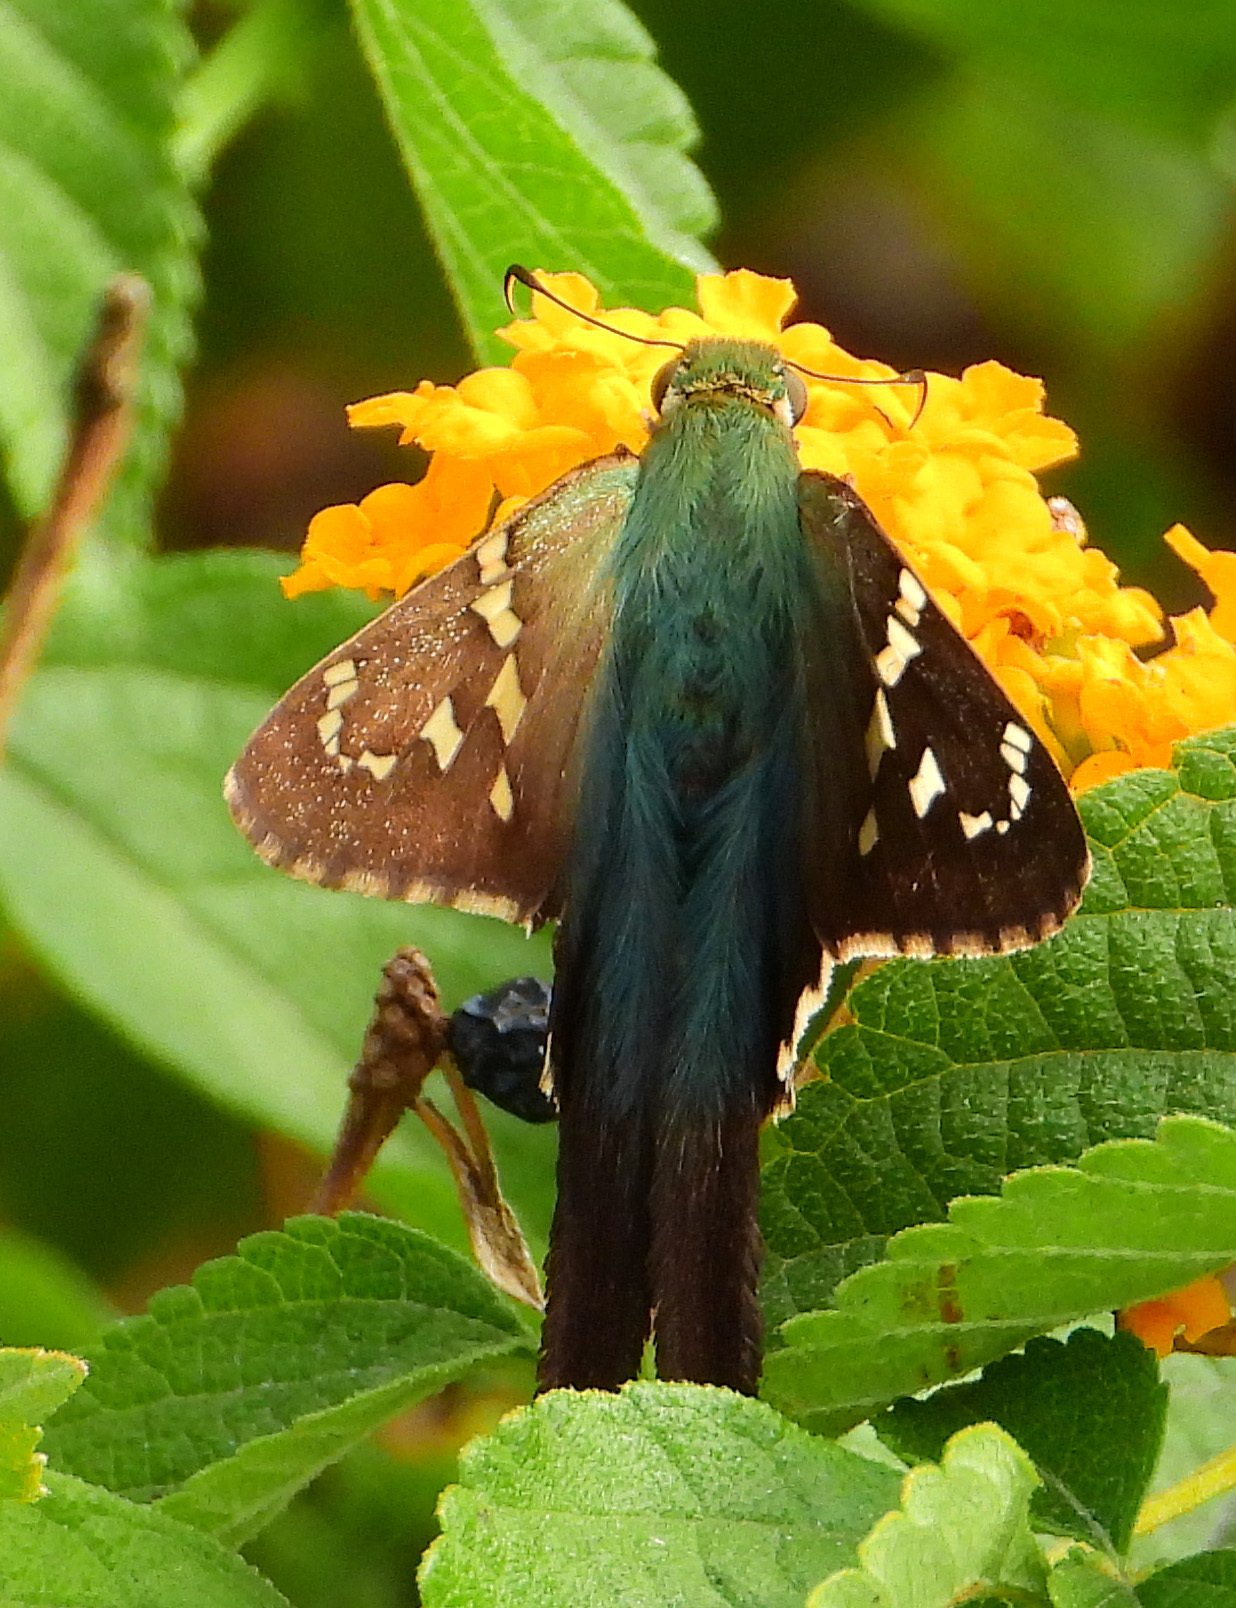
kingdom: Animalia
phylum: Arthropoda
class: Insecta
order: Lepidoptera
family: Hesperiidae
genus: Urbanus
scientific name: Urbanus proteus
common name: Long-tailed skipper
